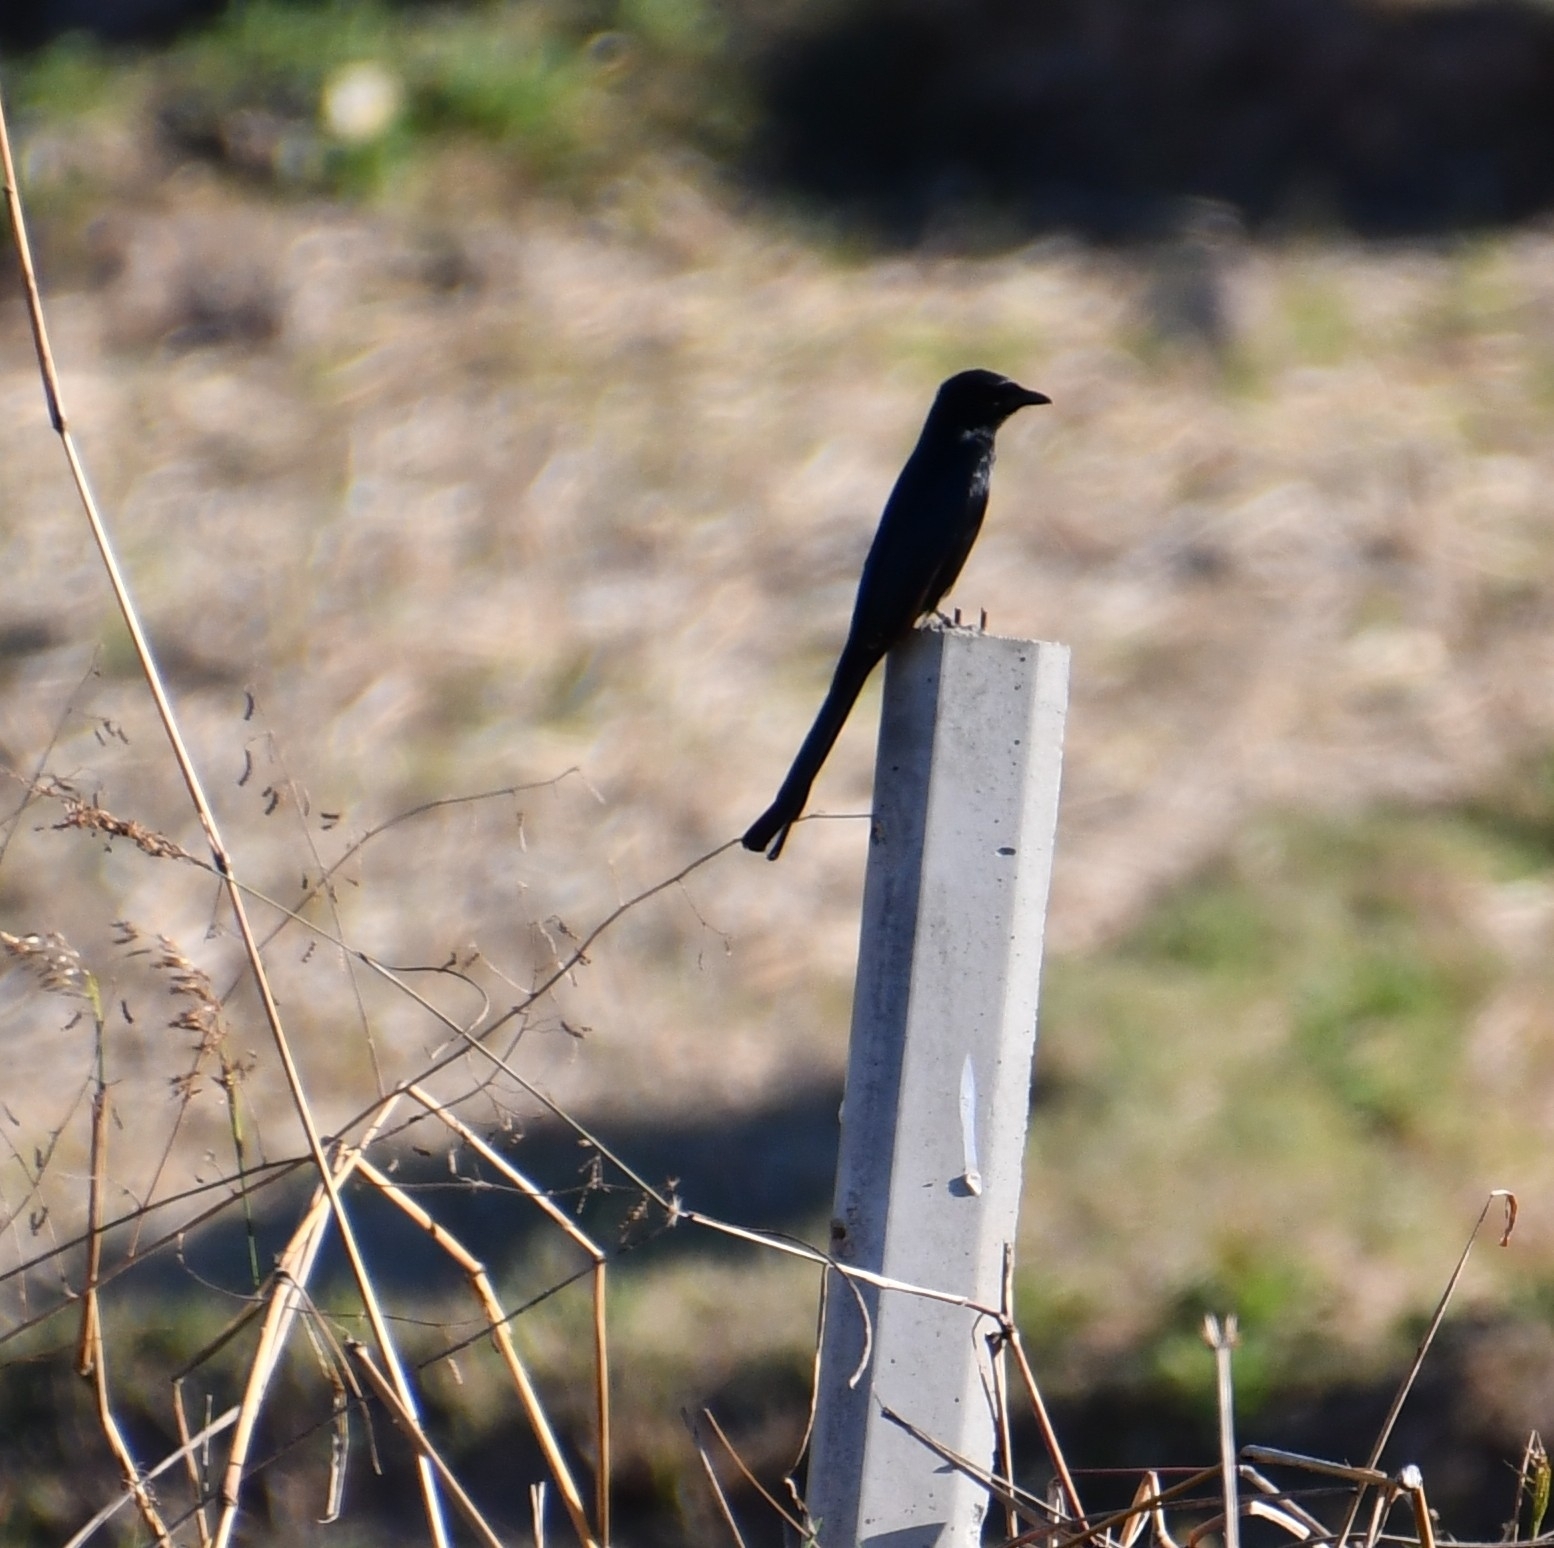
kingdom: Animalia
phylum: Chordata
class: Aves
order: Passeriformes
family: Dicruridae
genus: Dicrurus
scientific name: Dicrurus macrocercus
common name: Black drongo
